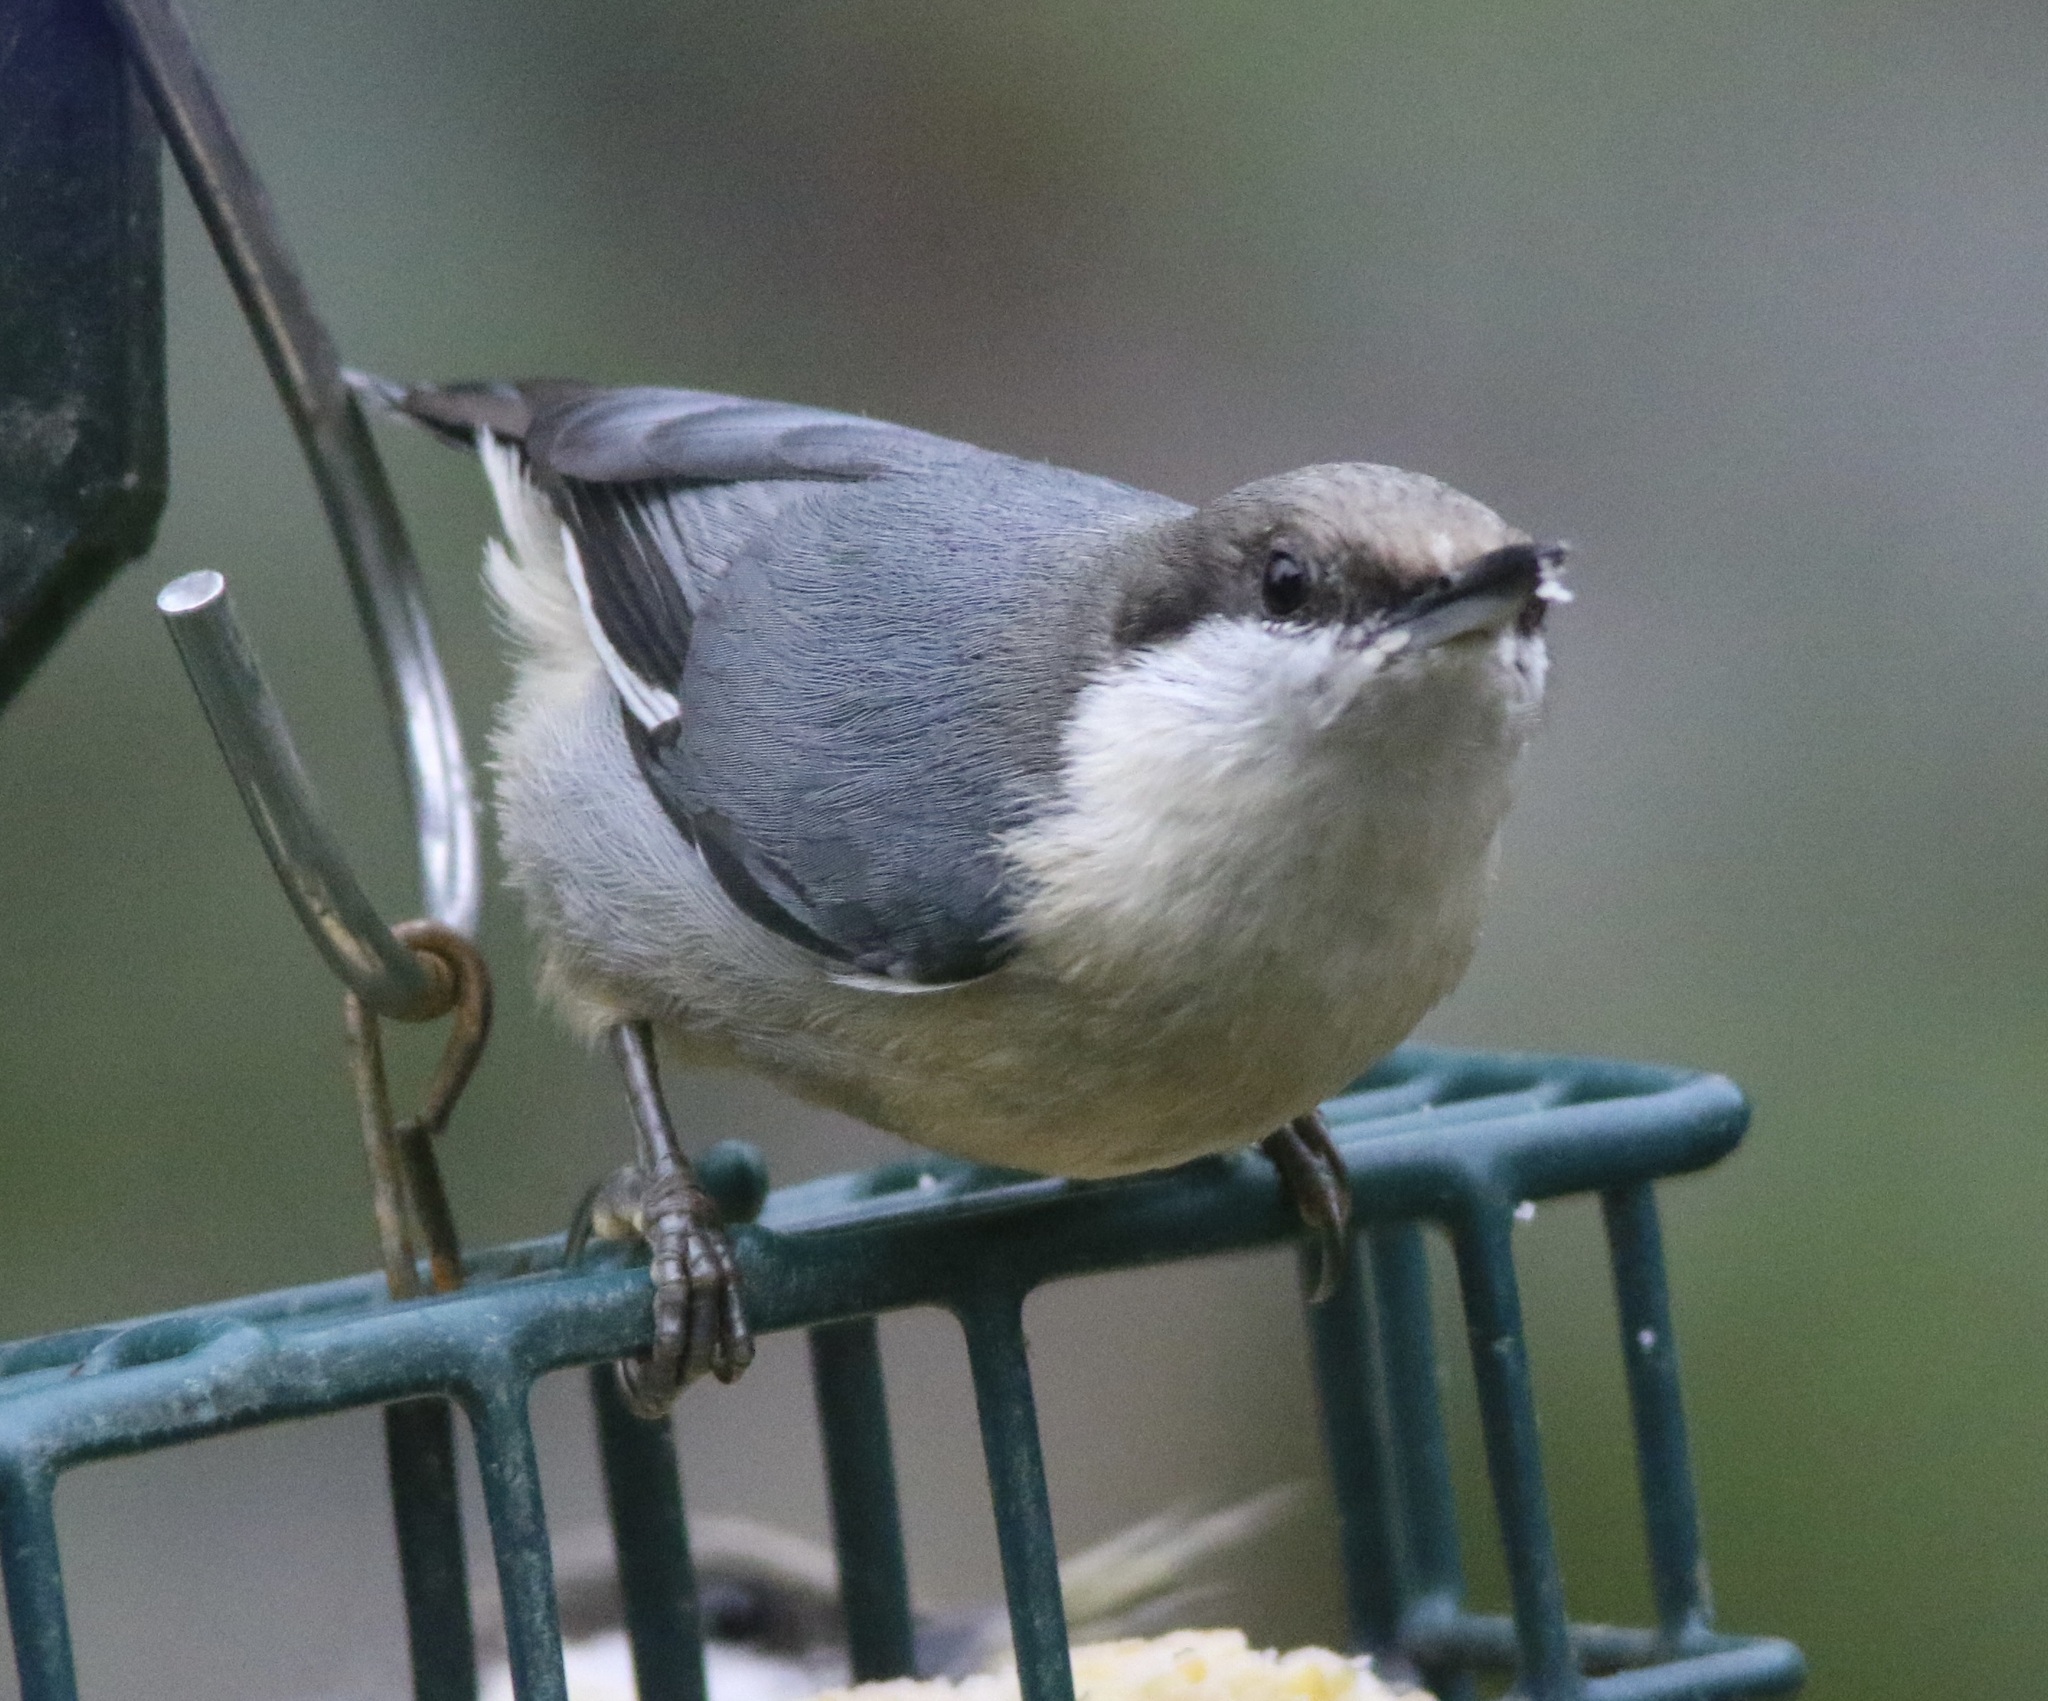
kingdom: Animalia
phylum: Chordata
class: Aves
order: Passeriformes
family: Sittidae
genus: Sitta
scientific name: Sitta pygmaea
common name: Pygmy nuthatch
